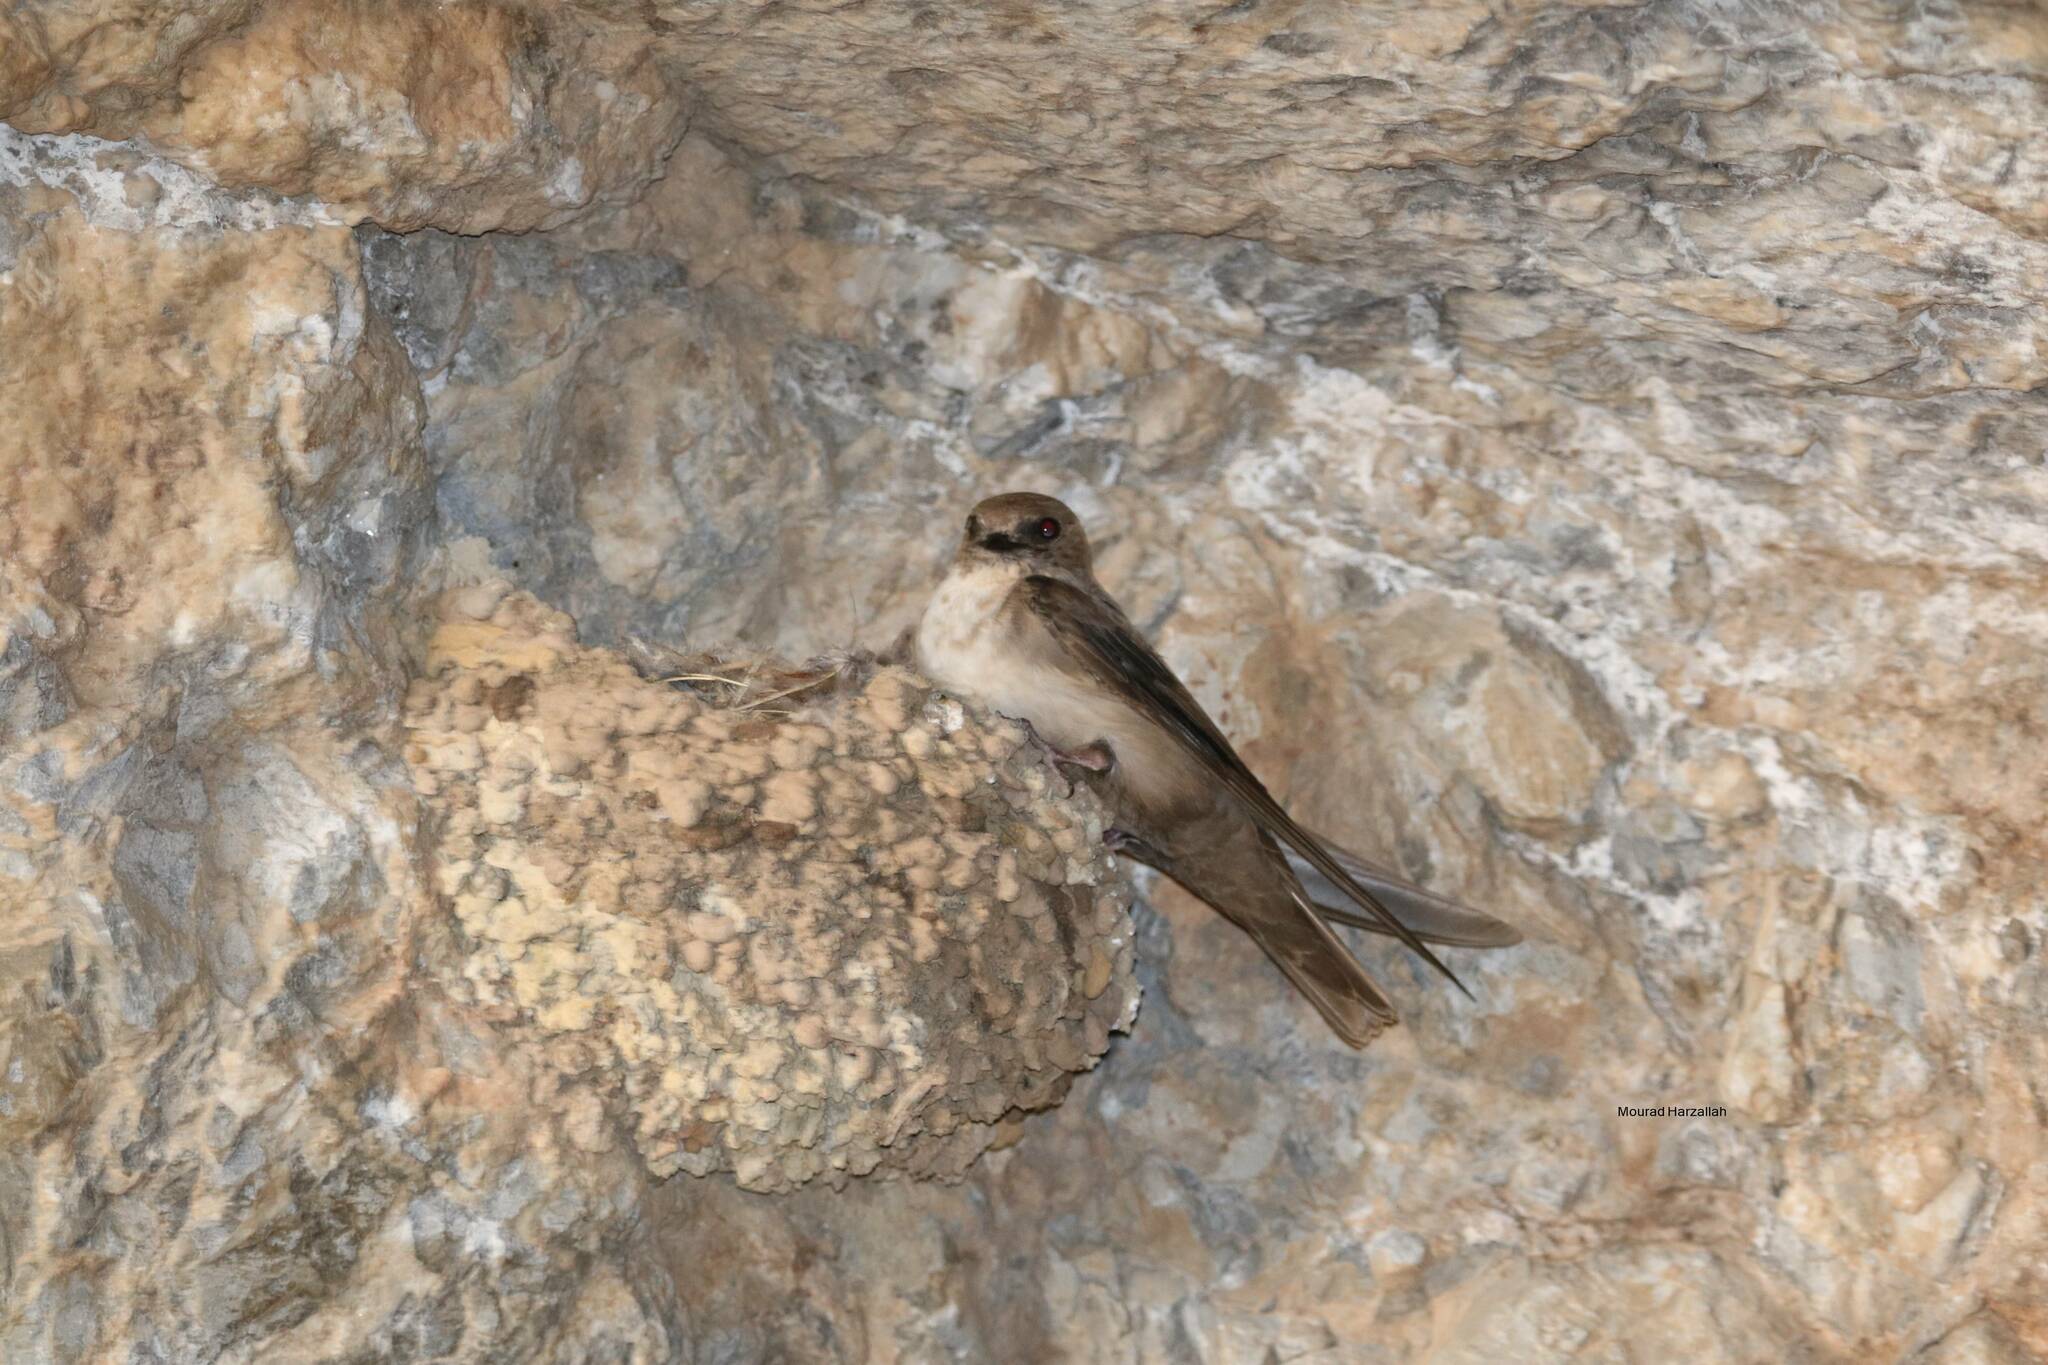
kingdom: Animalia
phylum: Chordata
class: Aves
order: Passeriformes
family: Hirundinidae
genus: Ptyonoprogne
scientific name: Ptyonoprogne rupestris
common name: Eurasian crag martin
